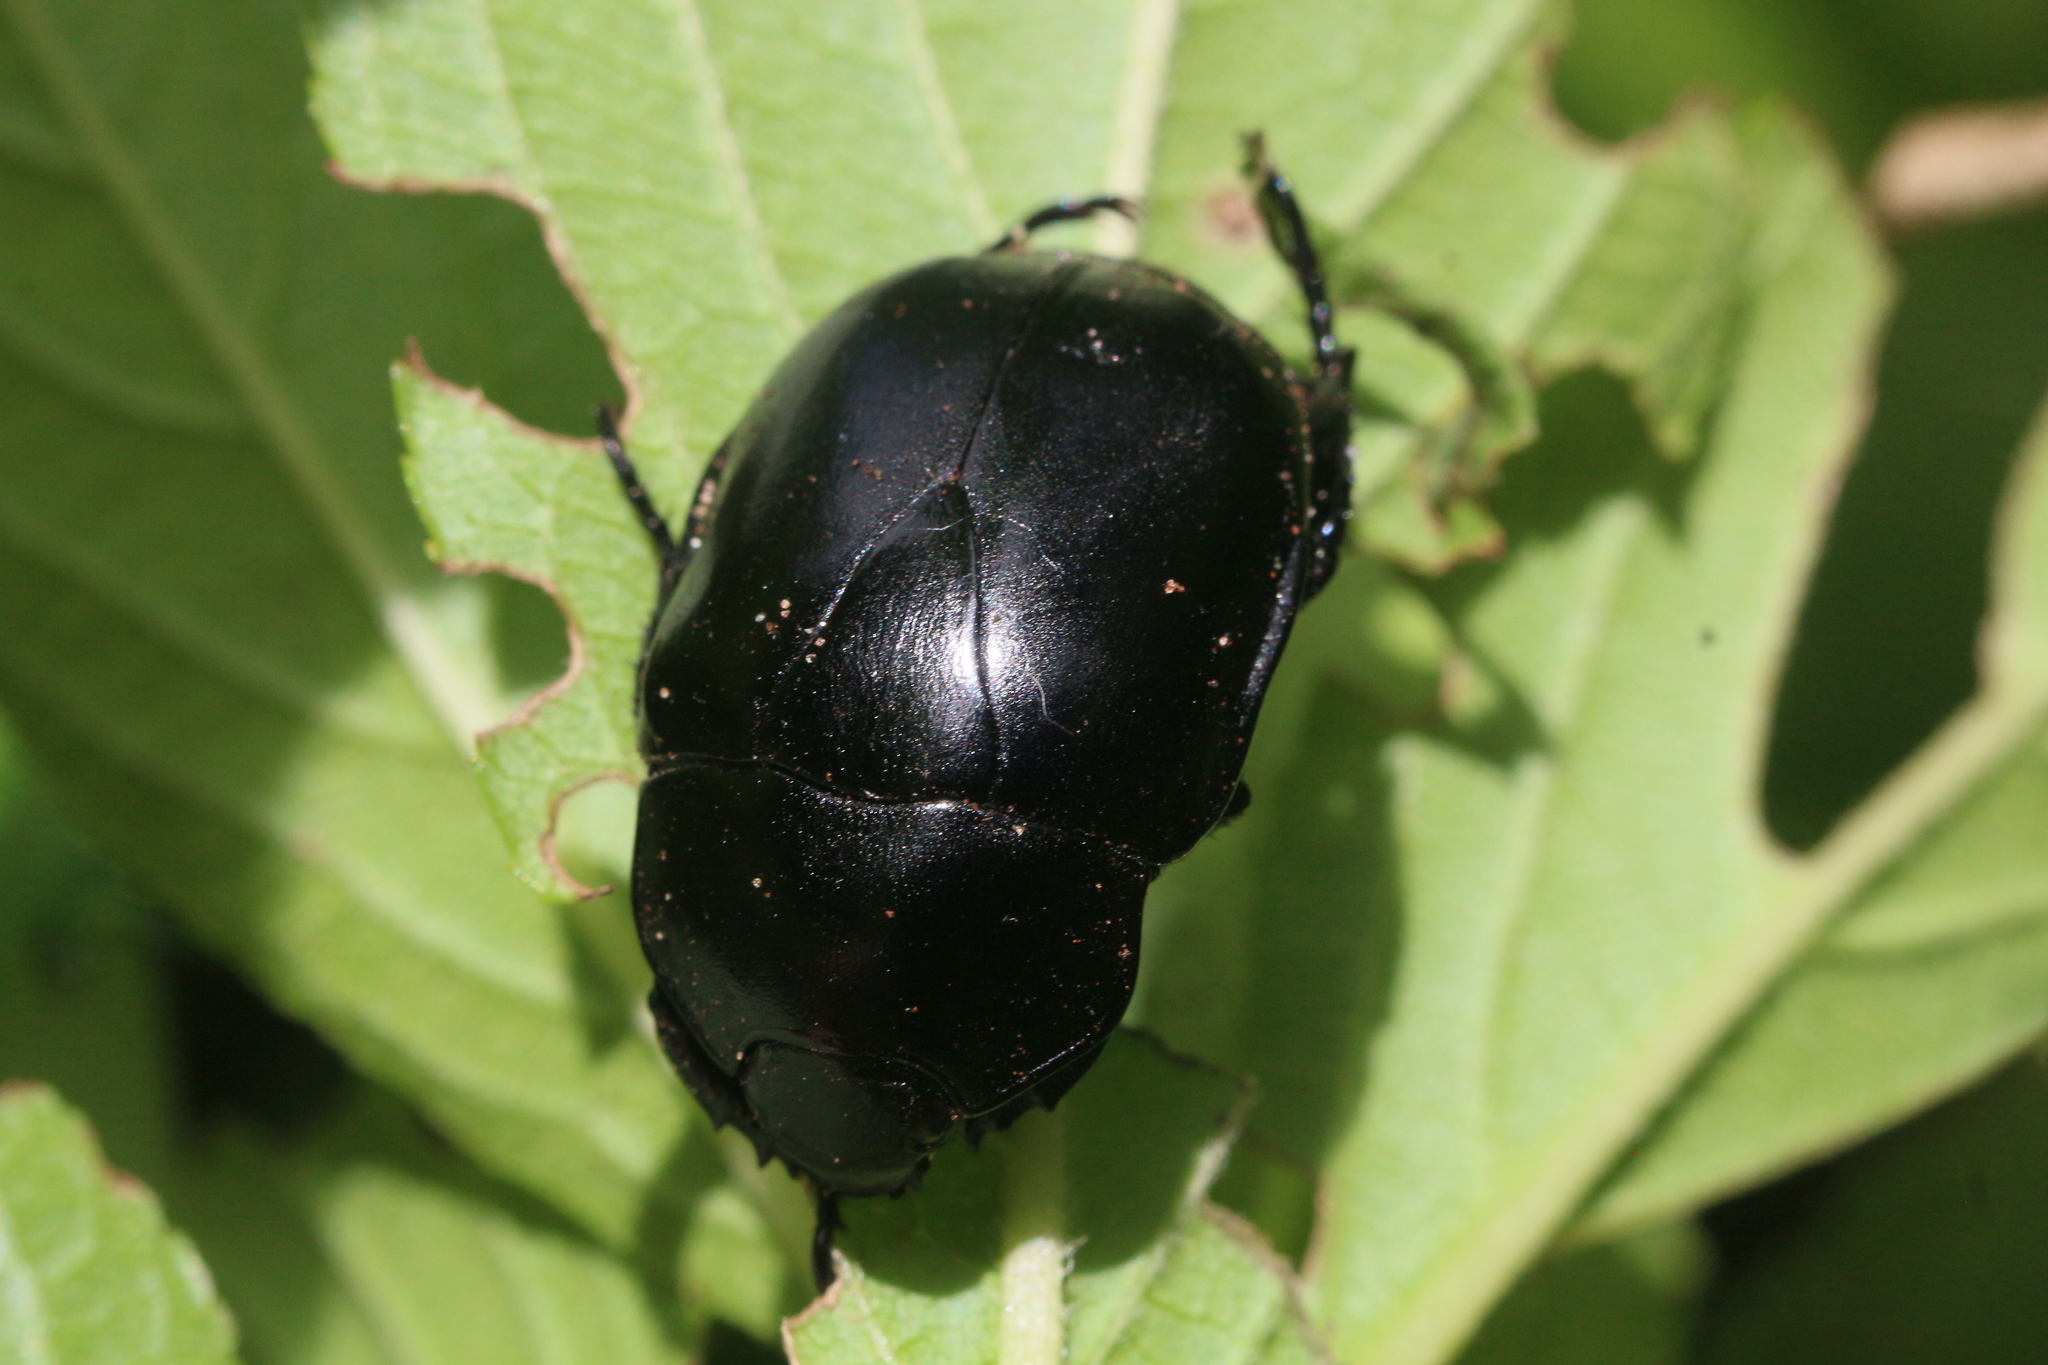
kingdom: Animalia
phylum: Arthropoda
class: Insecta
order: Coleoptera
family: Scarabaeidae
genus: Macraspis
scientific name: Macraspis morio
